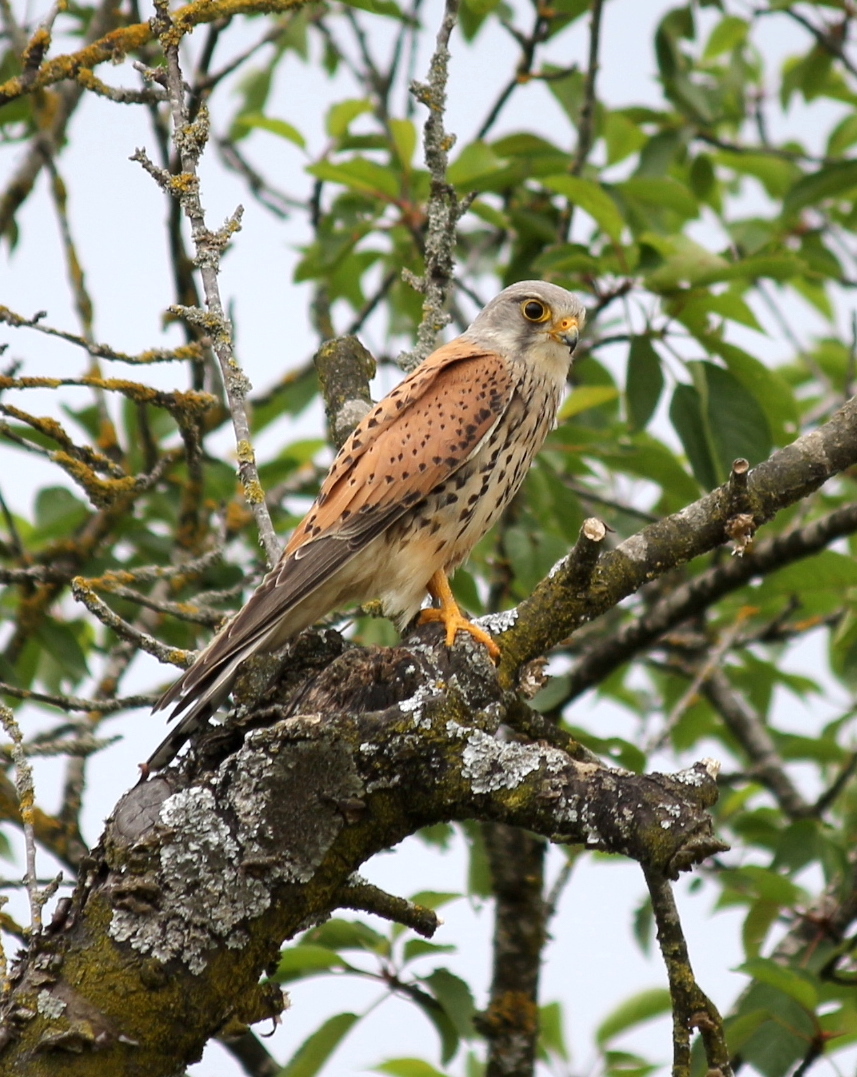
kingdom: Animalia
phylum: Chordata
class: Aves
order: Falconiformes
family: Falconidae
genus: Falco
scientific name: Falco tinnunculus
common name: Common kestrel
